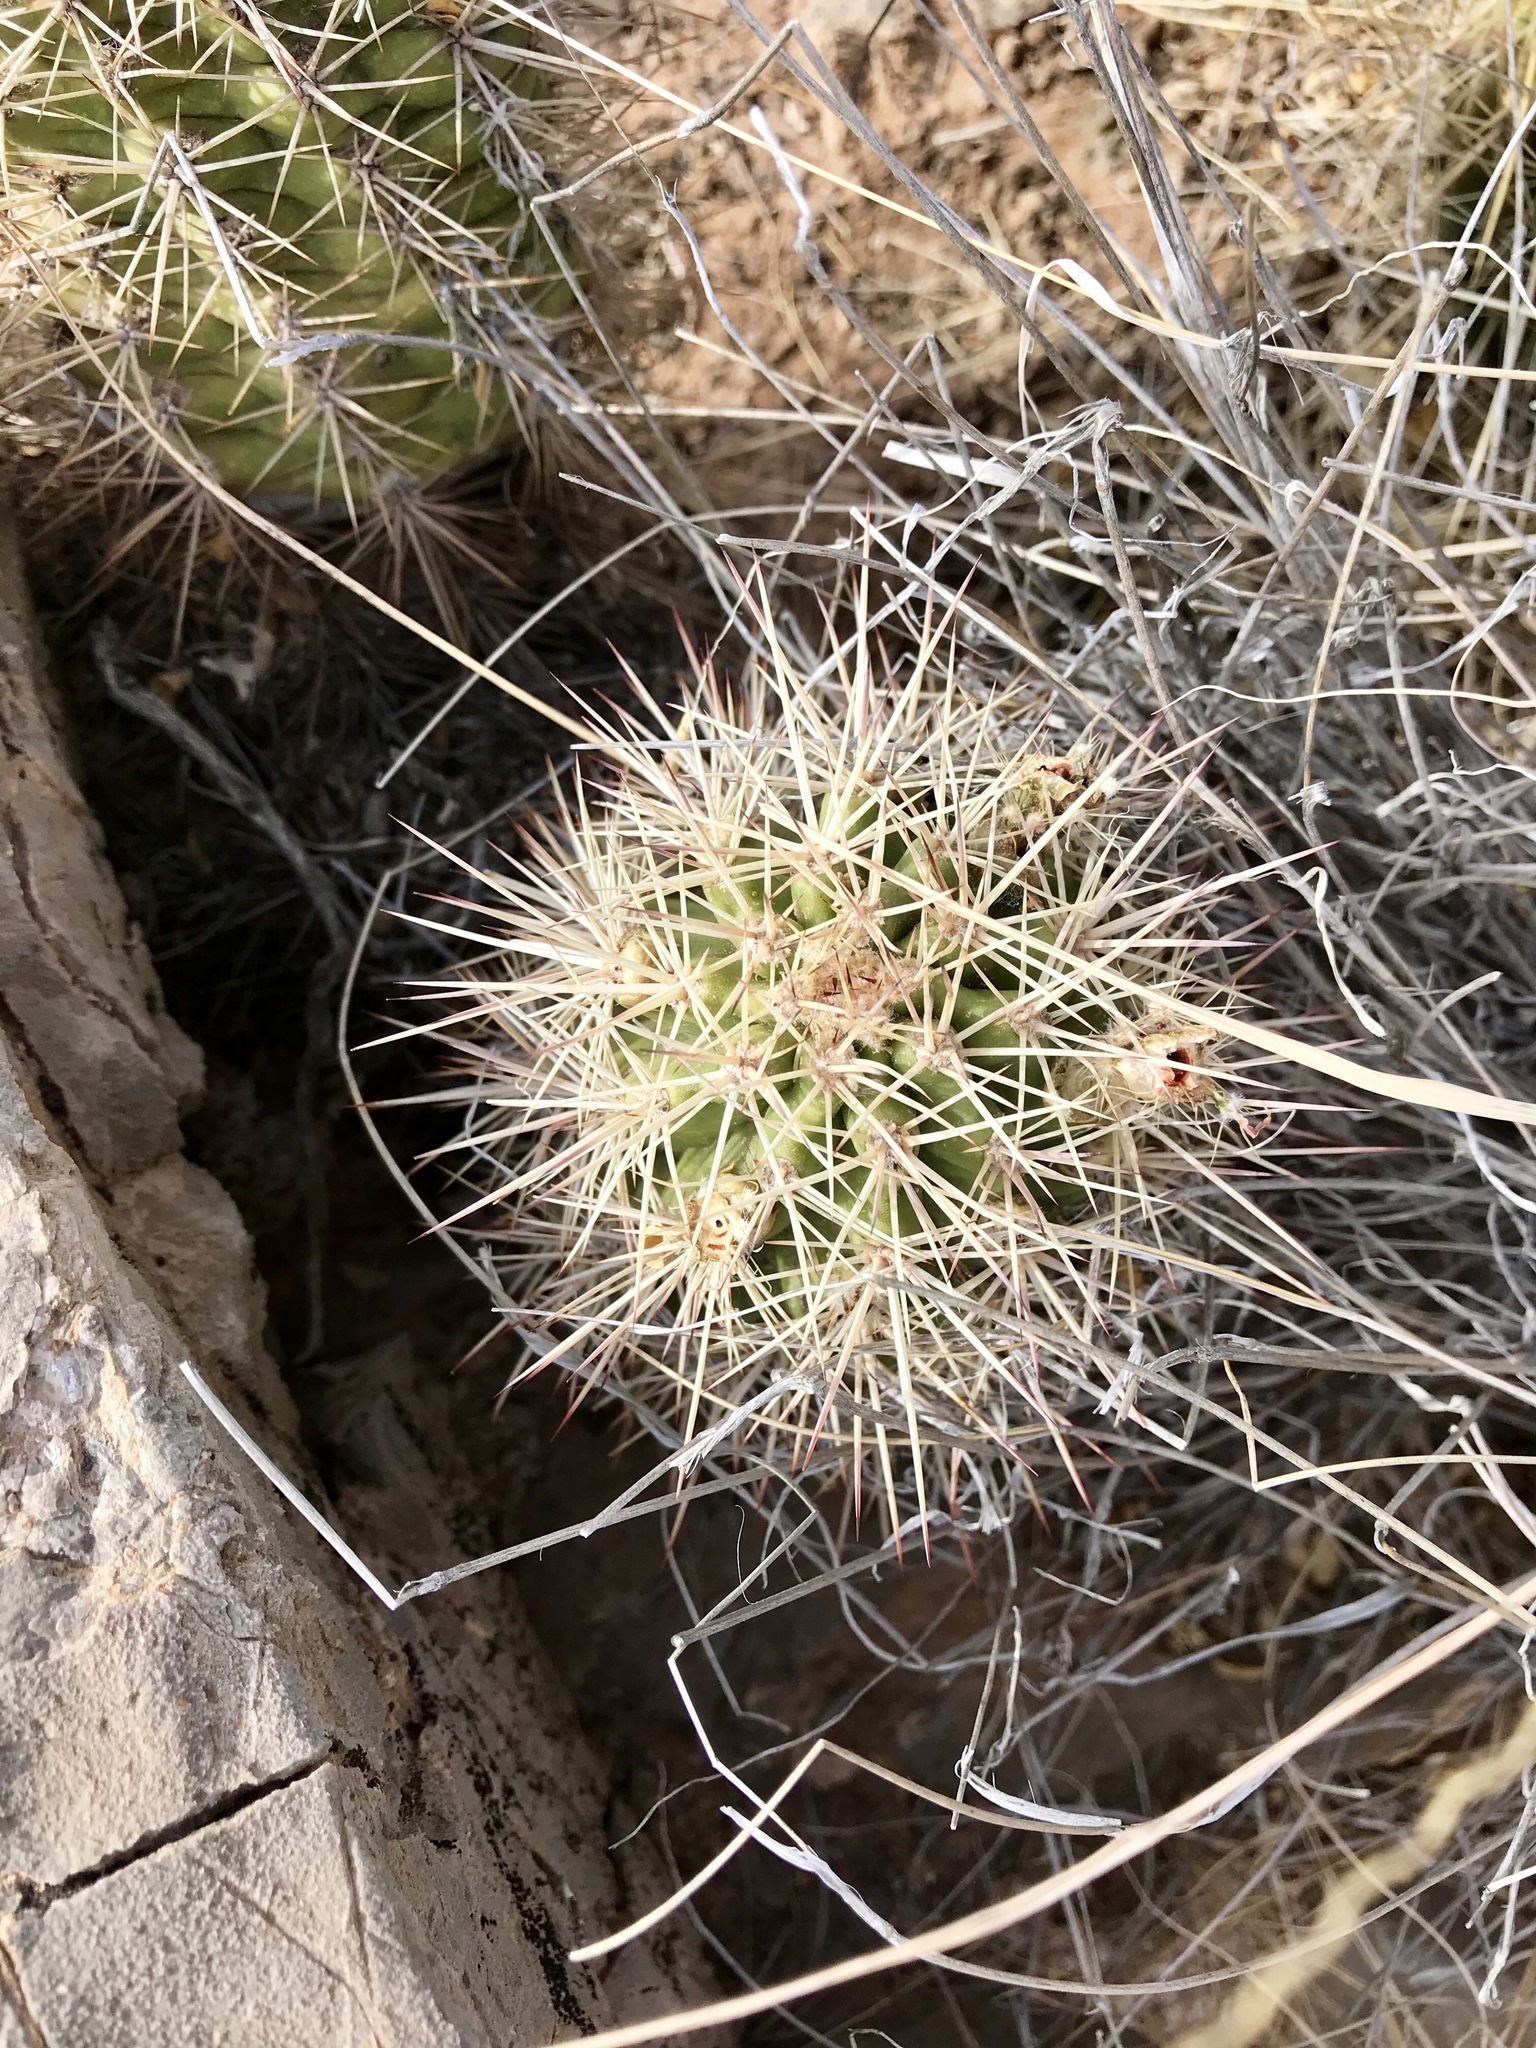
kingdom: Plantae
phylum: Tracheophyta
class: Magnoliopsida
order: Caryophyllales
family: Cactaceae
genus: Echinocereus
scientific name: Echinocereus roetteri
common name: Lloyd's hedgehog cactus
